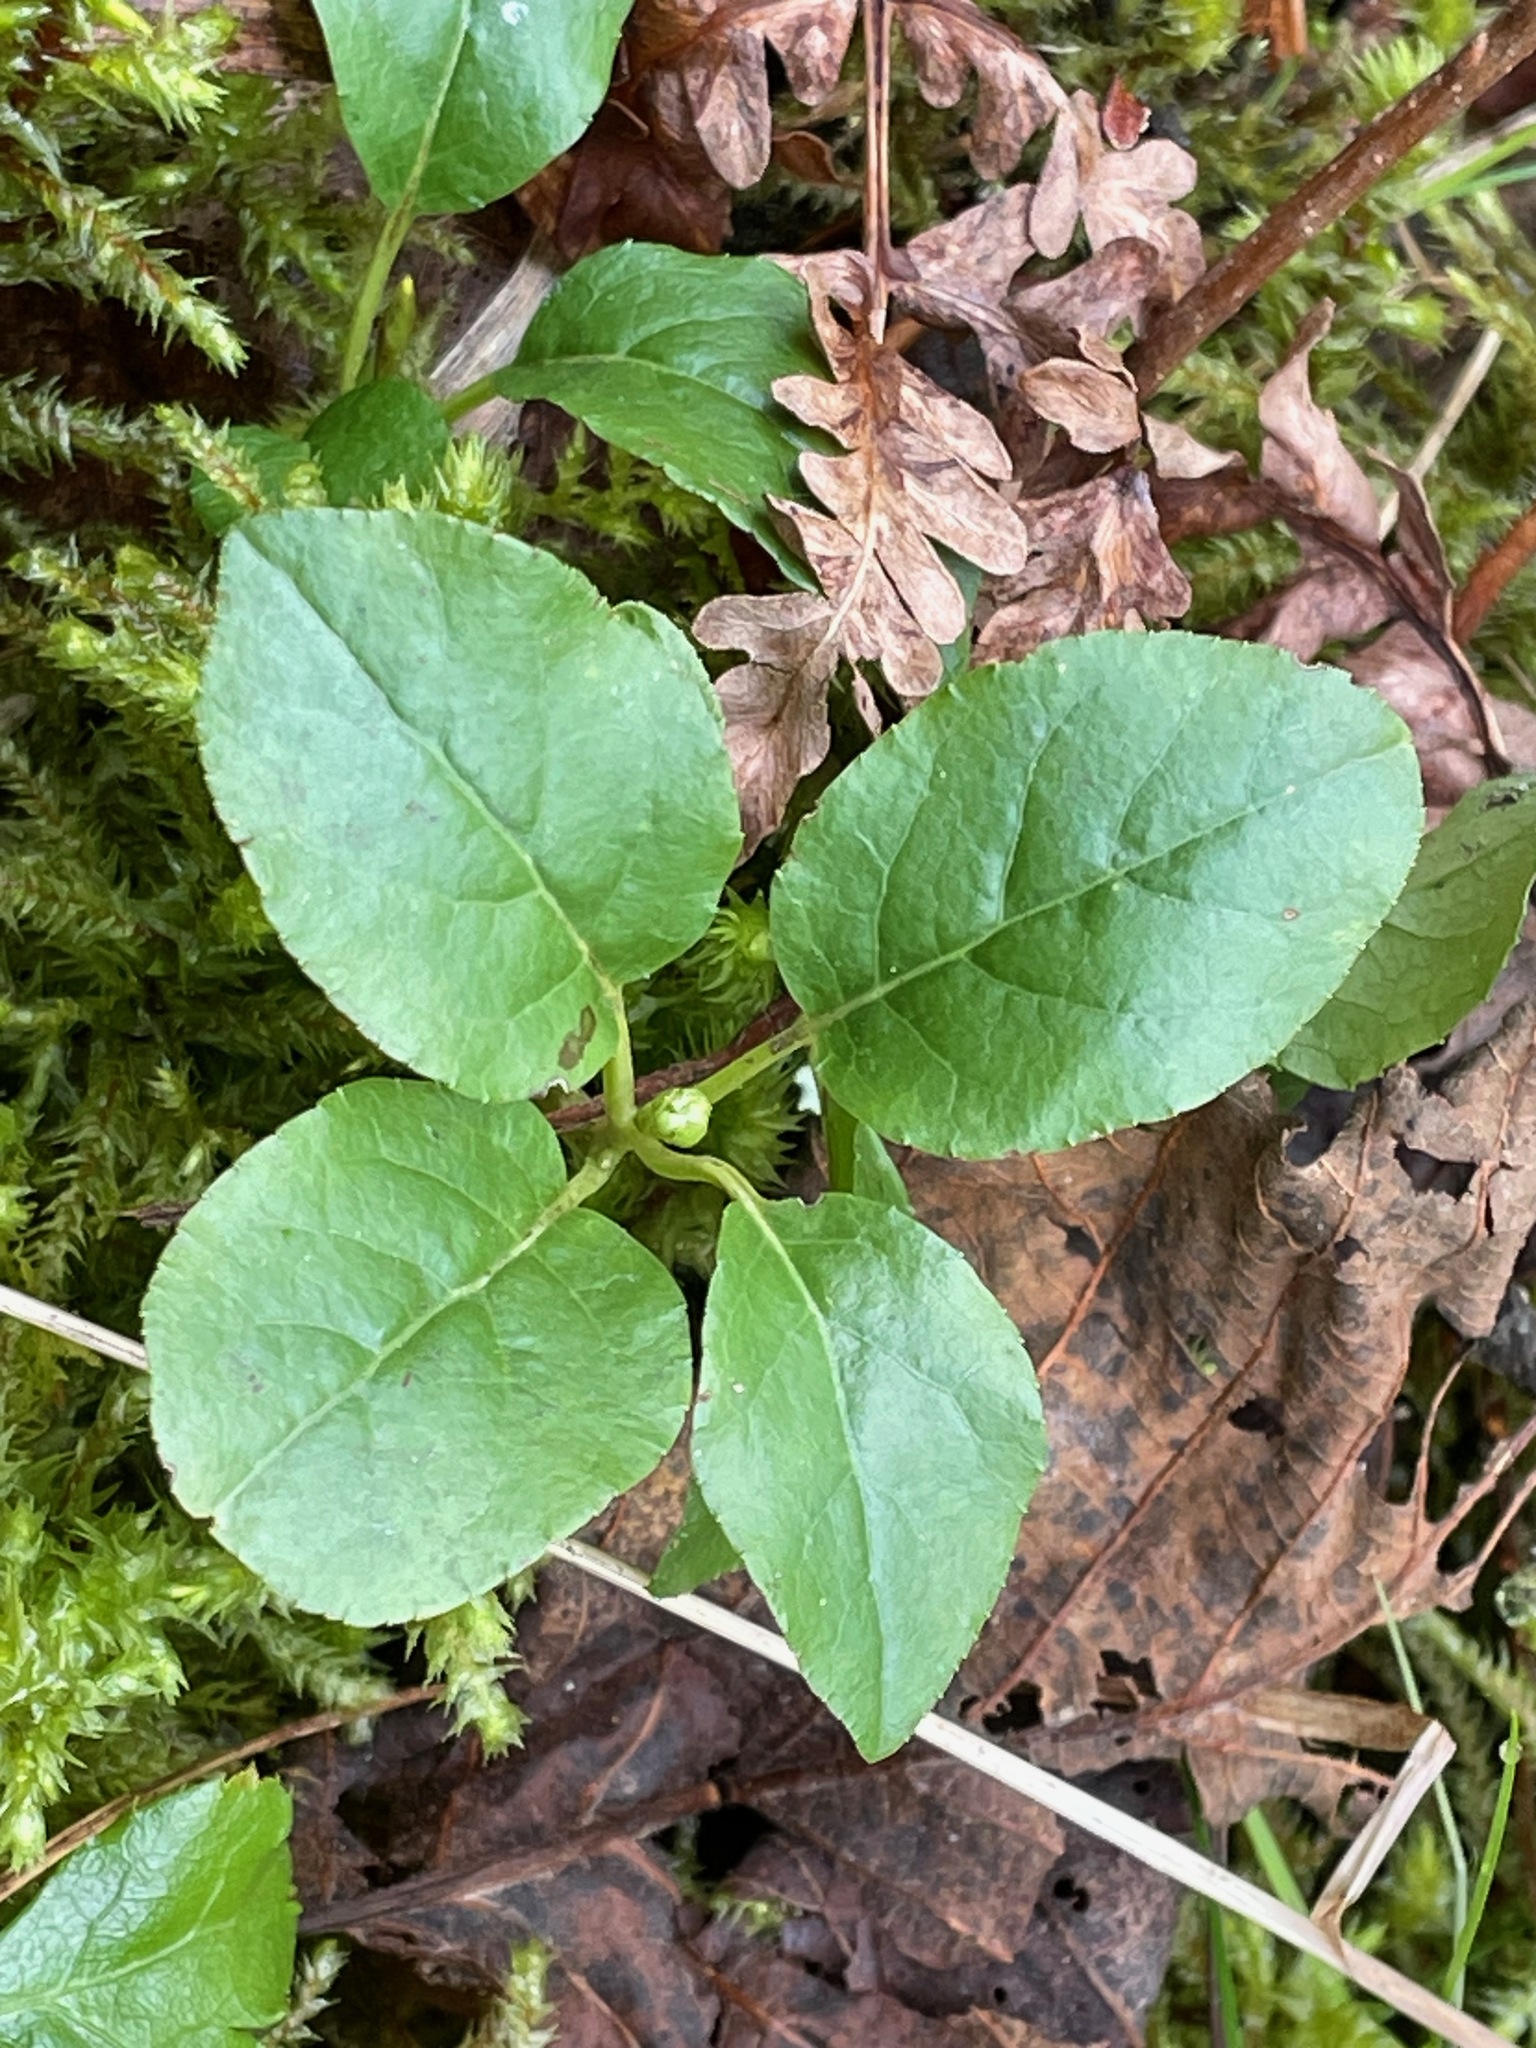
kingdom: Plantae
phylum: Tracheophyta
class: Magnoliopsida
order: Ericales
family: Ericaceae
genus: Orthilia
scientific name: Orthilia secunda
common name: One-sided orthilia
